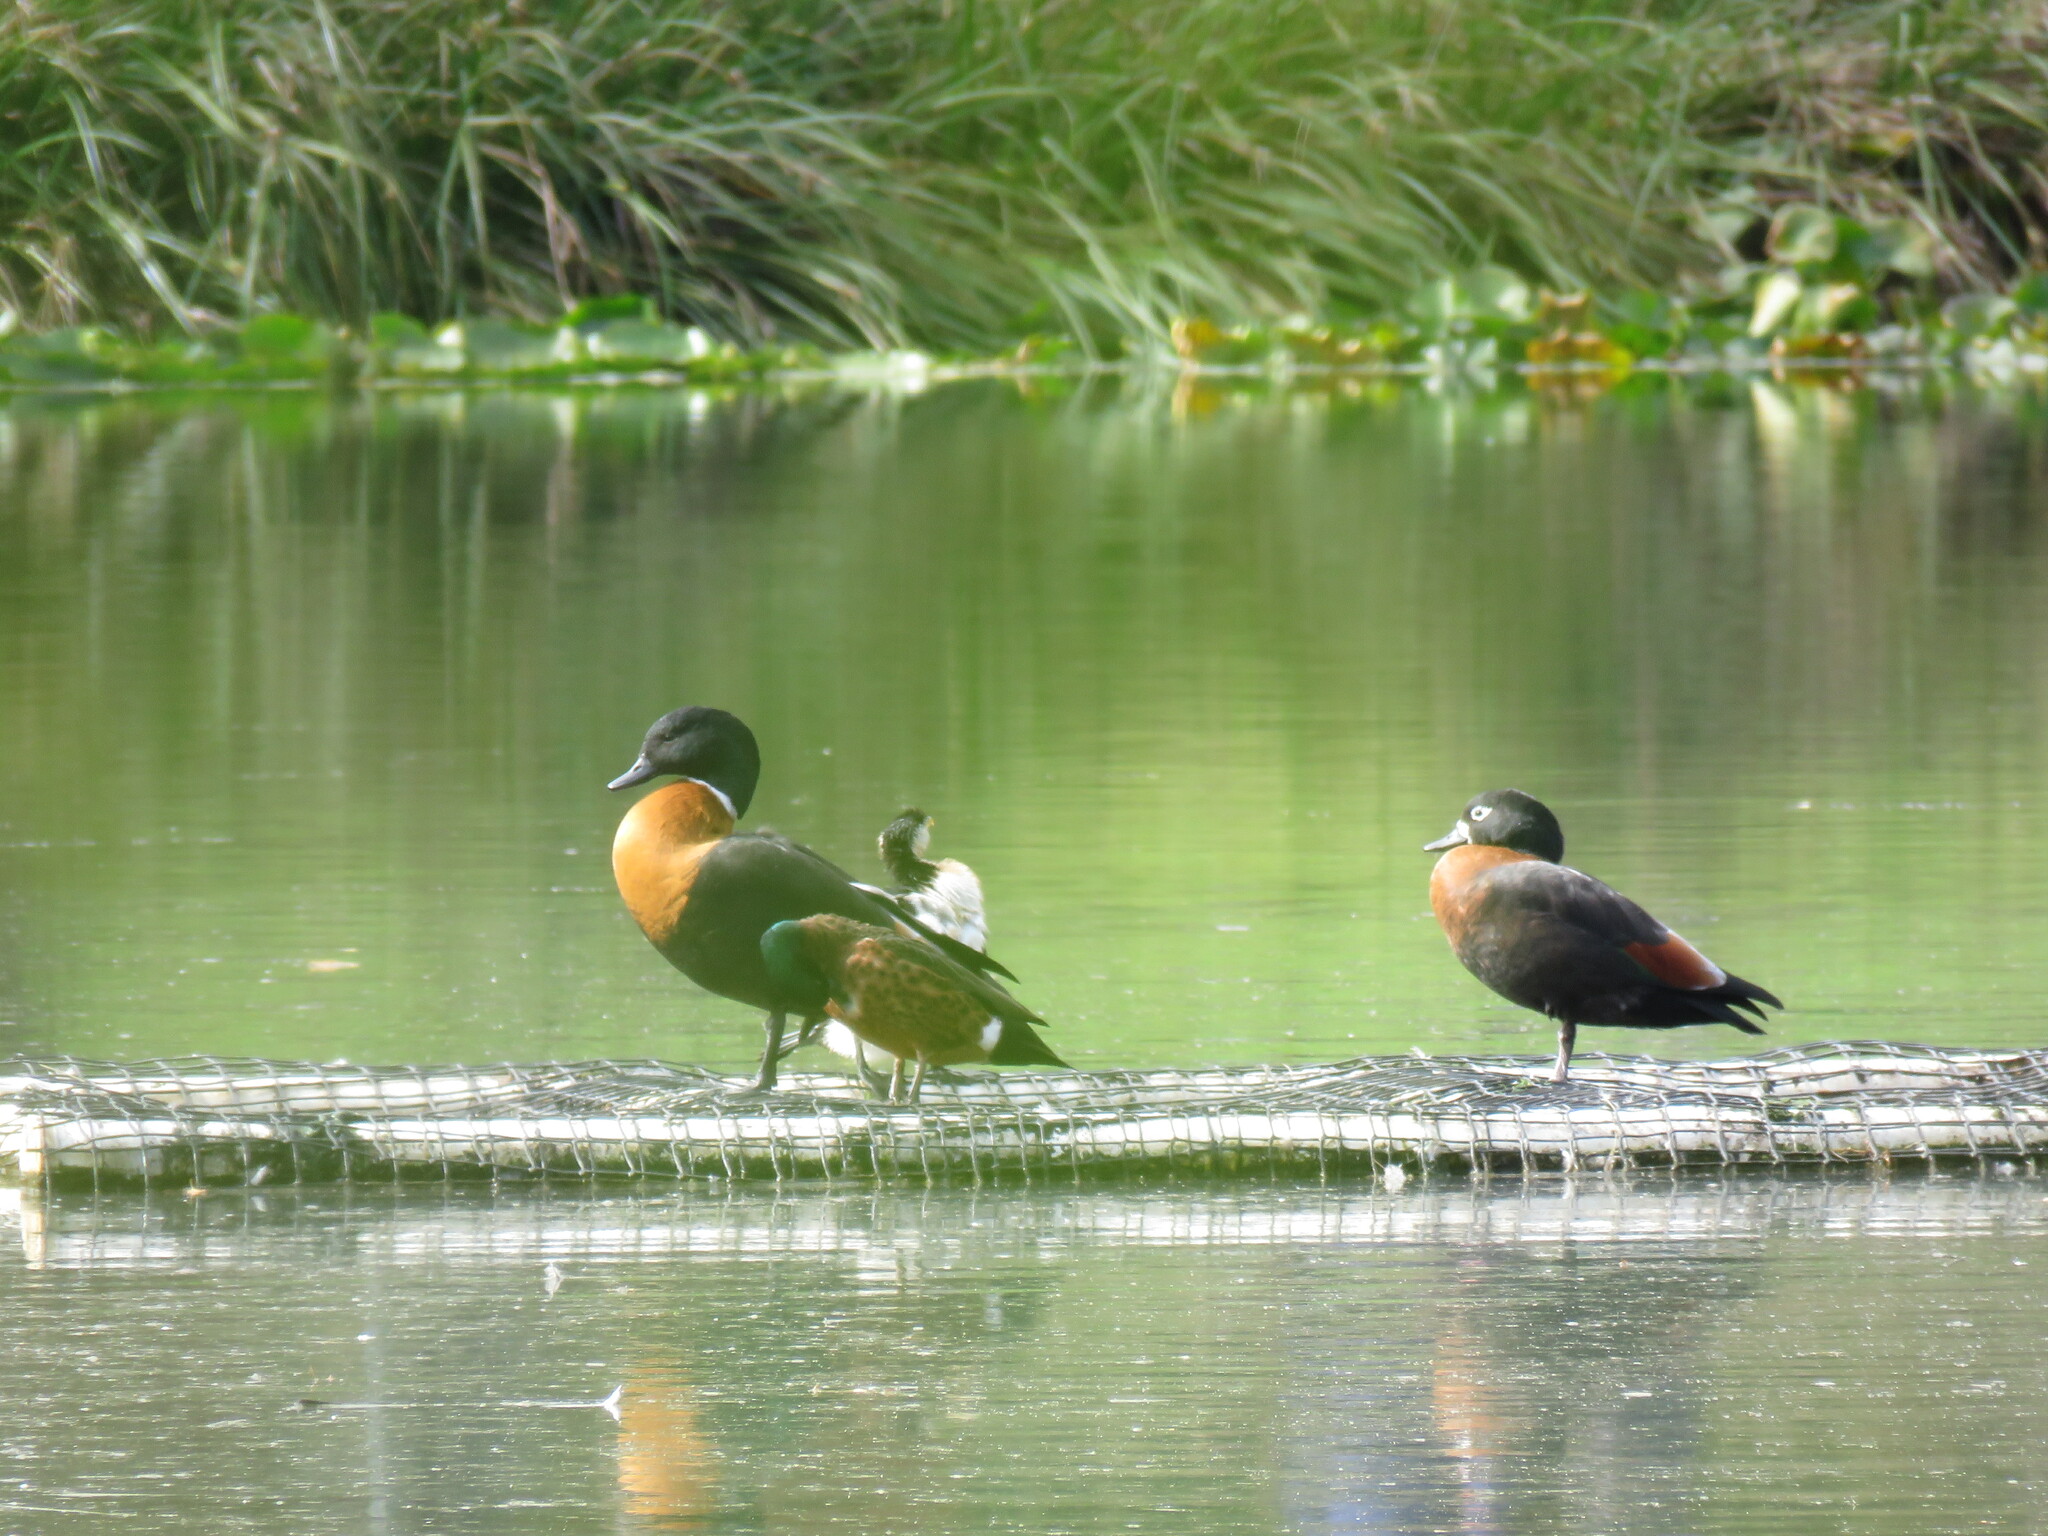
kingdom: Animalia
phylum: Chordata
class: Aves
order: Anseriformes
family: Anatidae
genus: Tadorna
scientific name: Tadorna tadornoides
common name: Australian shelduck
